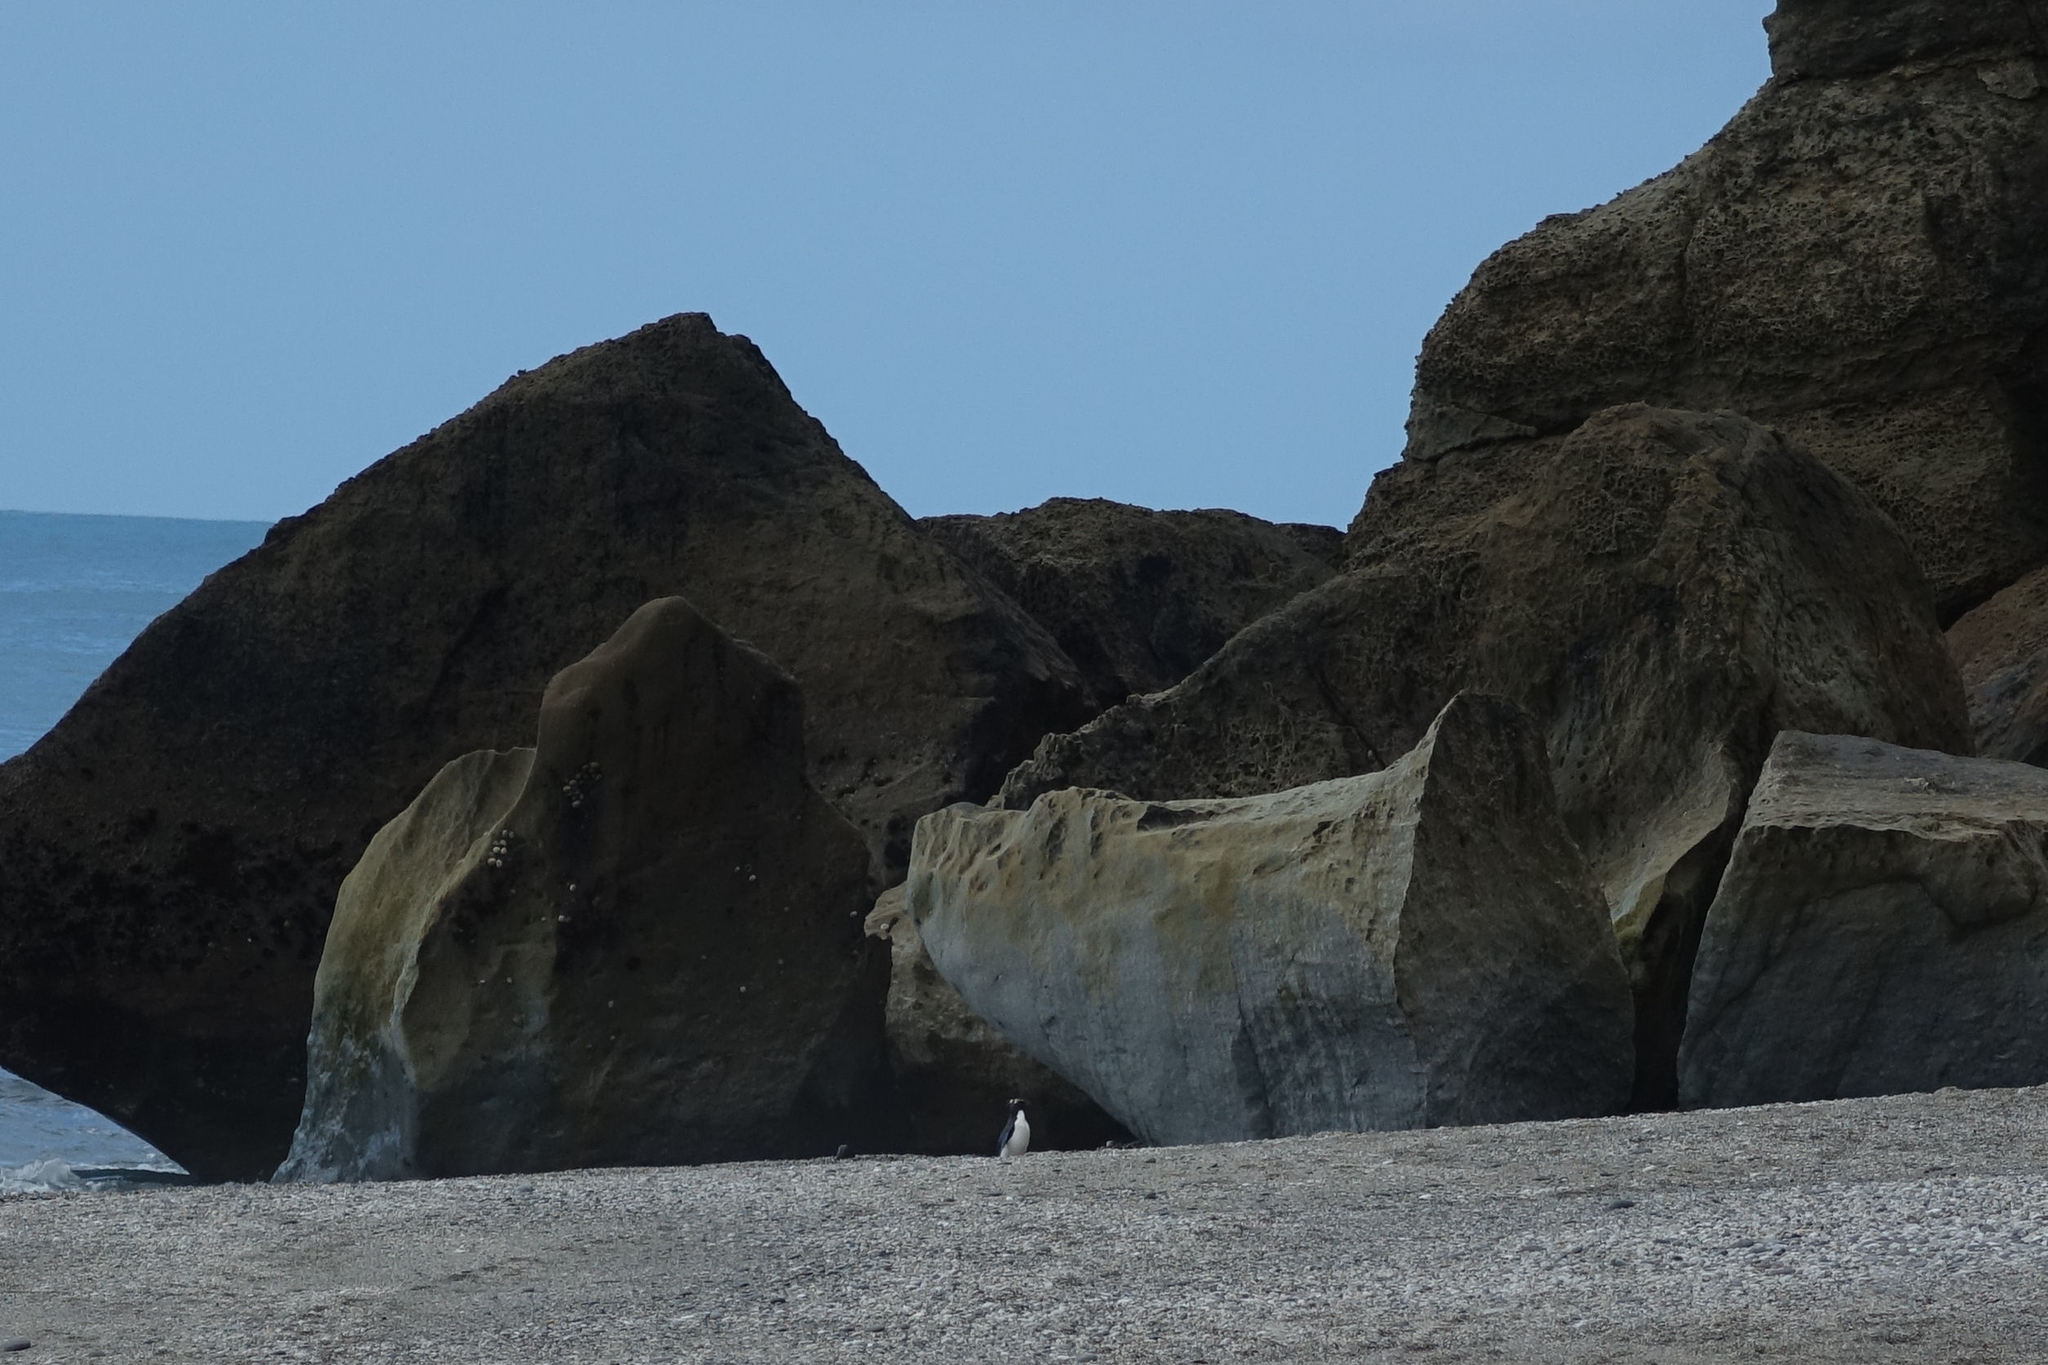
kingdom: Animalia
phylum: Chordata
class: Aves
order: Sphenisciformes
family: Spheniscidae
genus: Eudyptes
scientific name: Eudyptes pachyrhynchus
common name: Fiordland penguin
